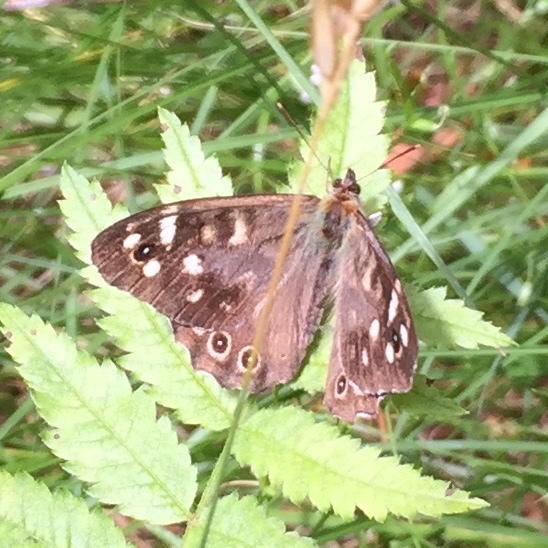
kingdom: Animalia
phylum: Arthropoda
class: Insecta
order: Lepidoptera
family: Nymphalidae
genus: Pararge
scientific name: Pararge aegeria
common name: Speckled wood
